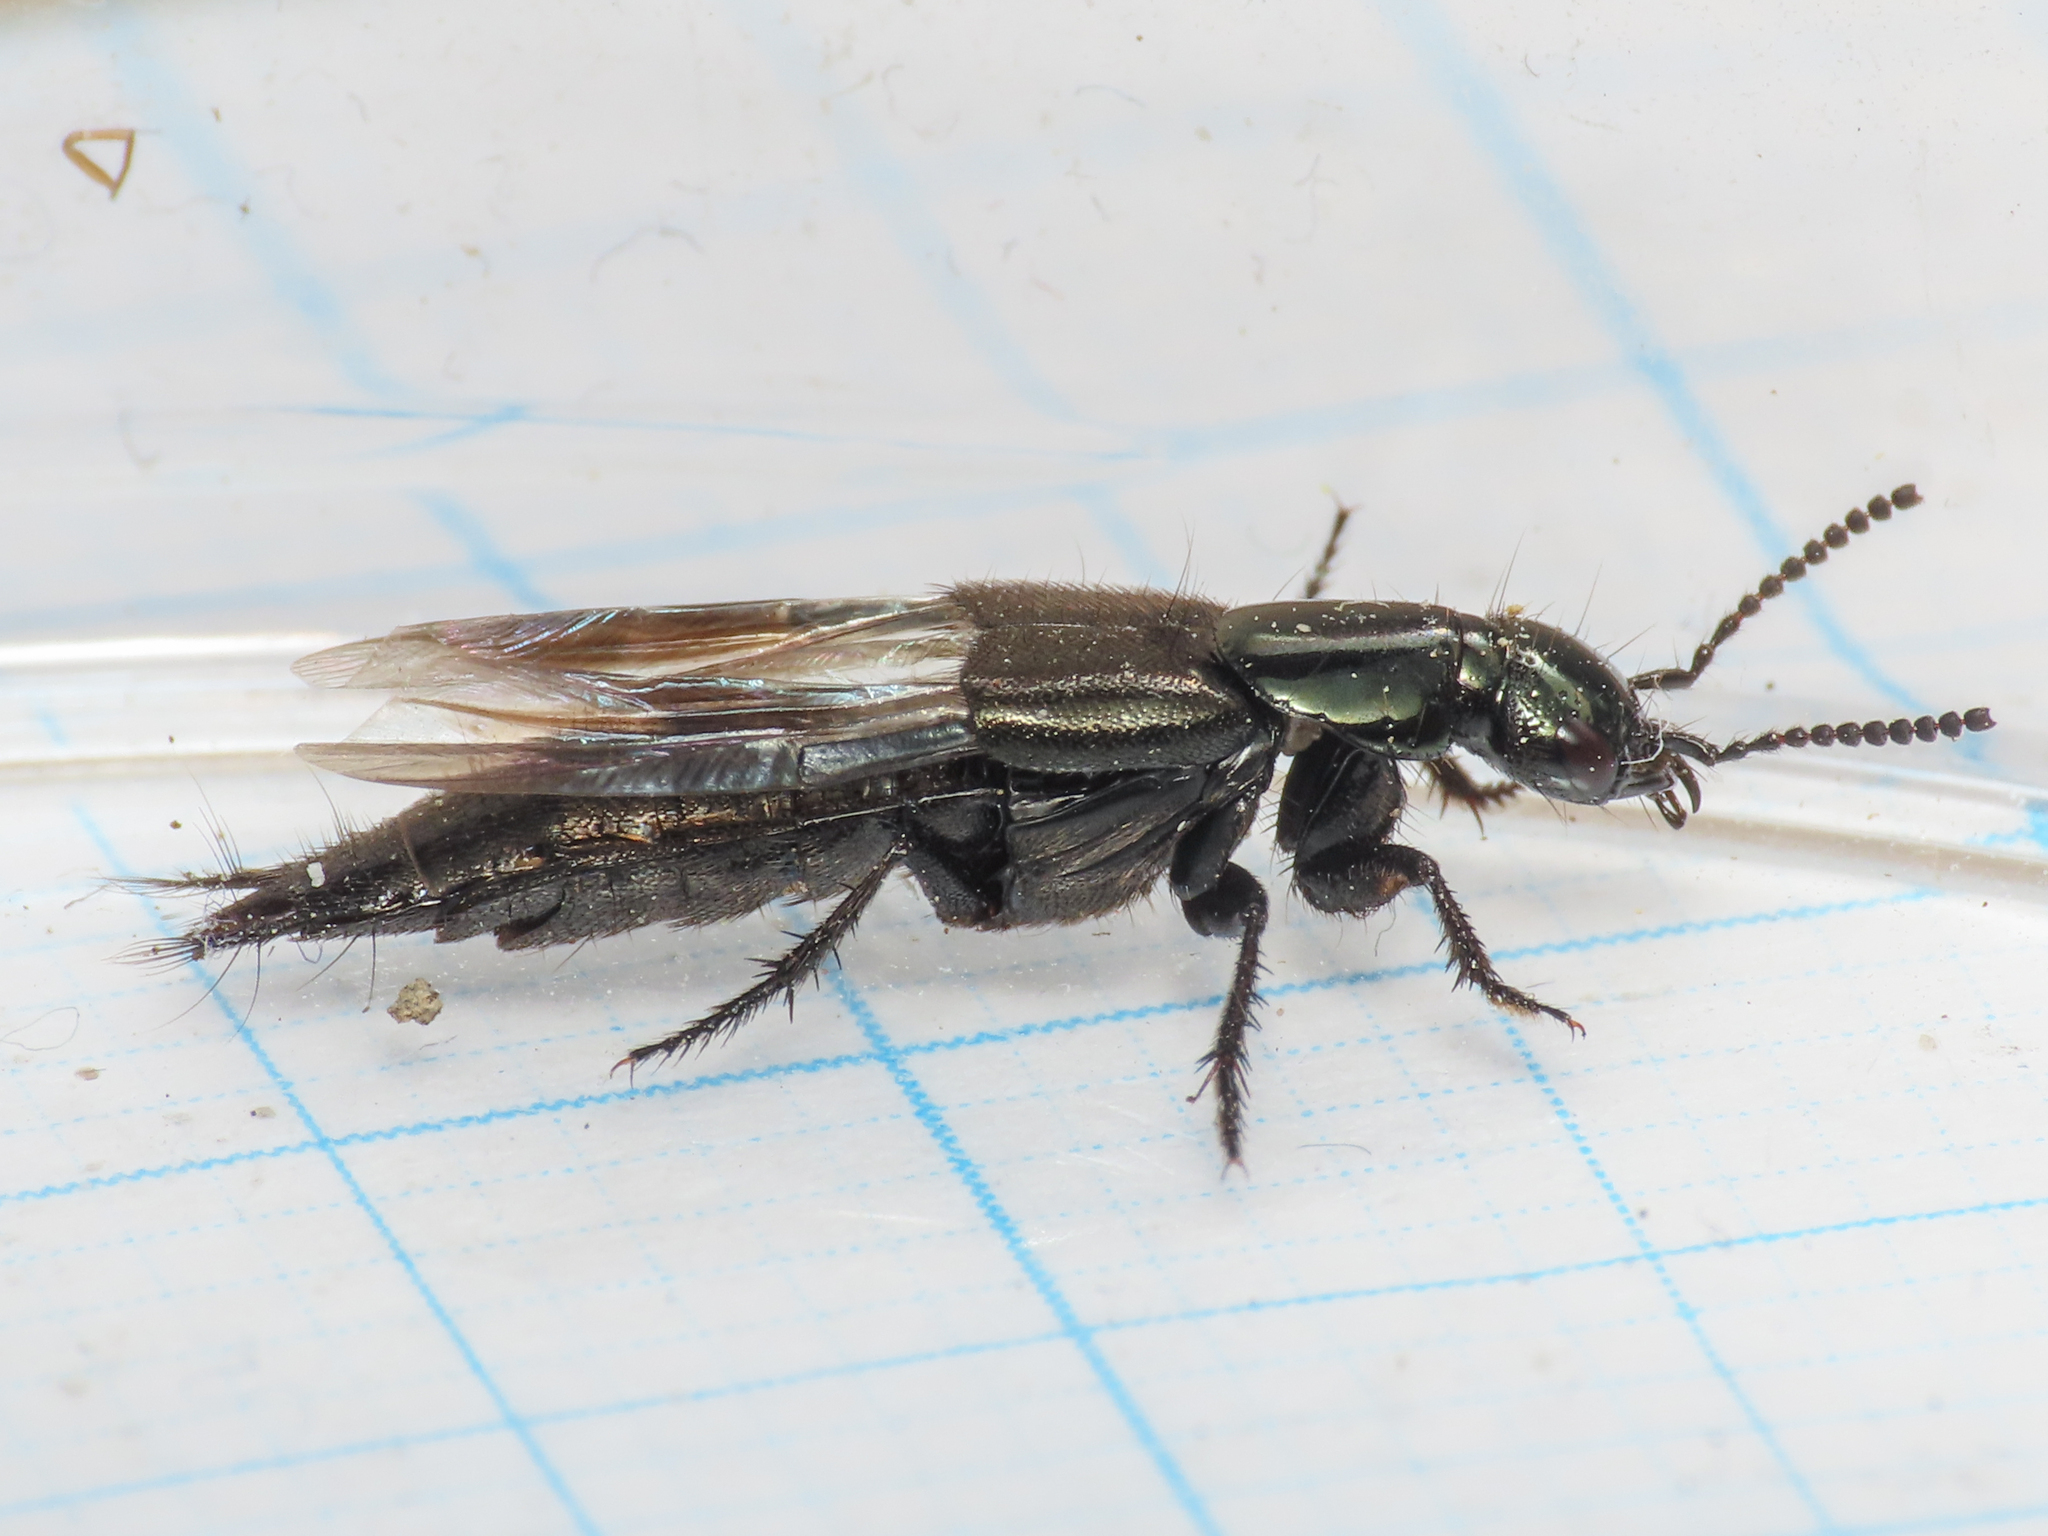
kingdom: Animalia
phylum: Arthropoda
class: Insecta
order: Coleoptera
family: Staphylinidae
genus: Philonthus
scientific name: Philonthus intermedius
